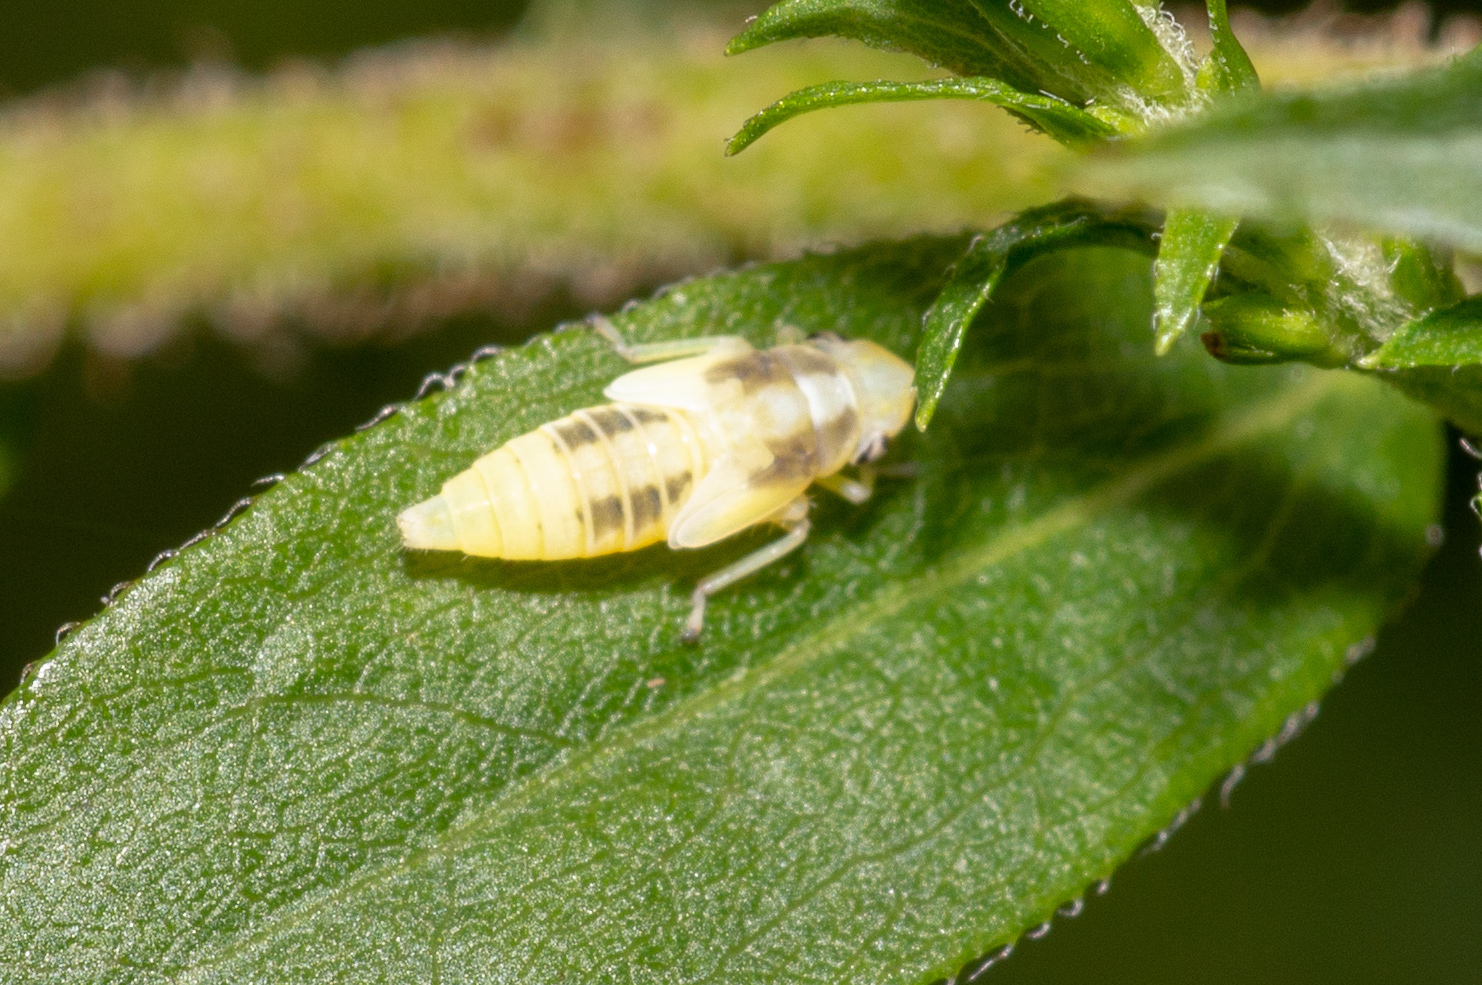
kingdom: Animalia
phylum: Arthropoda
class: Insecta
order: Hemiptera
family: Cicadellidae
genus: Neokolla
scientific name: Neokolla hieroglyphica
